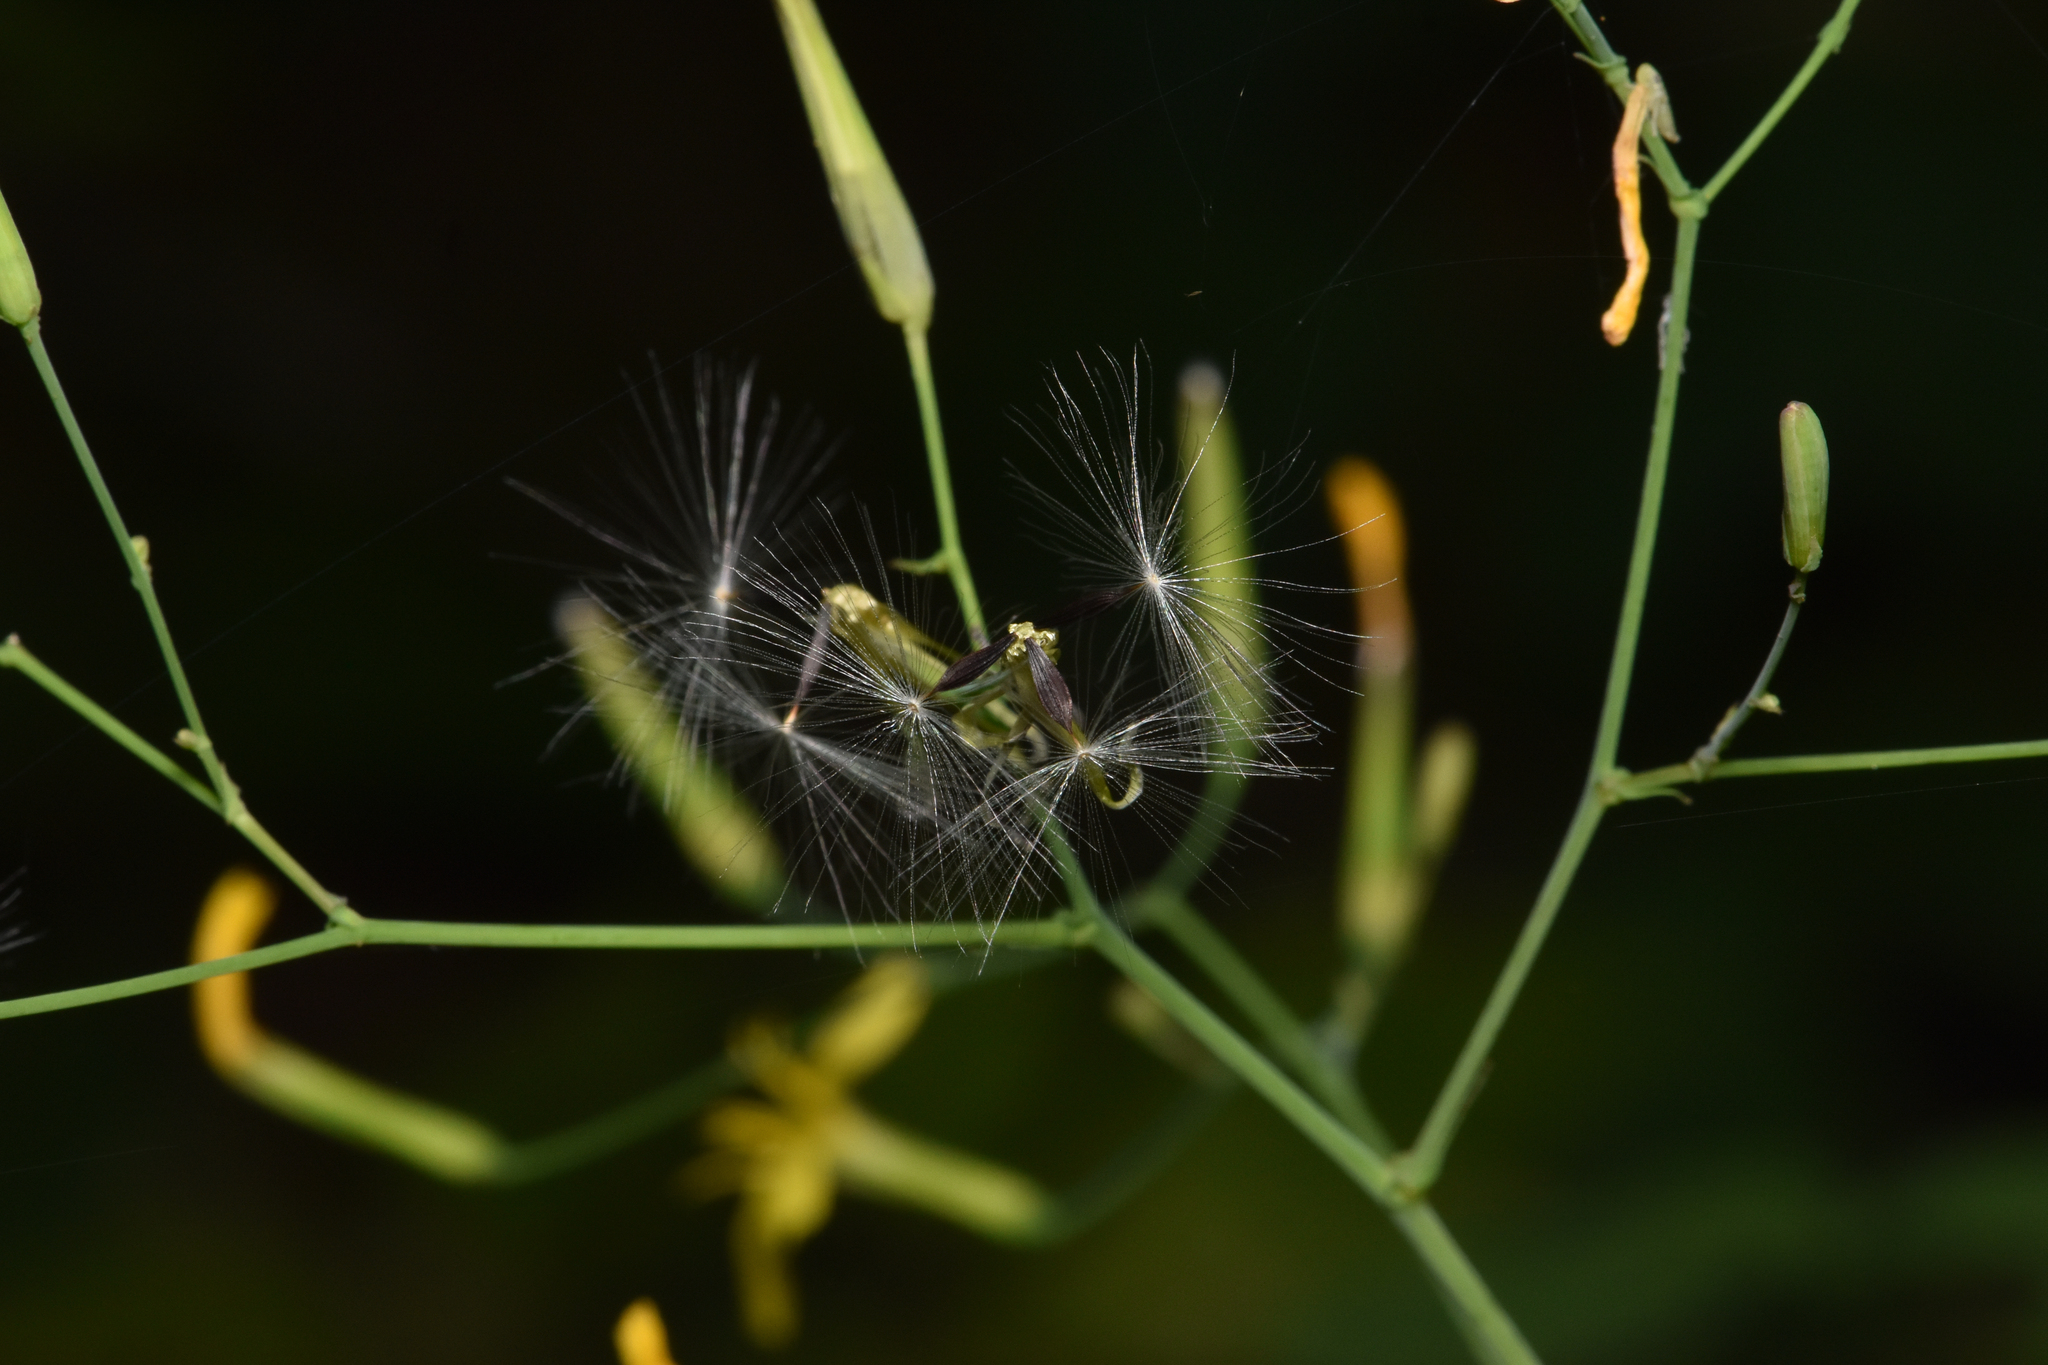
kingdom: Plantae
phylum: Tracheophyta
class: Magnoliopsida
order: Asterales
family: Asteraceae
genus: Mycelis
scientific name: Mycelis muralis
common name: Wall lettuce
